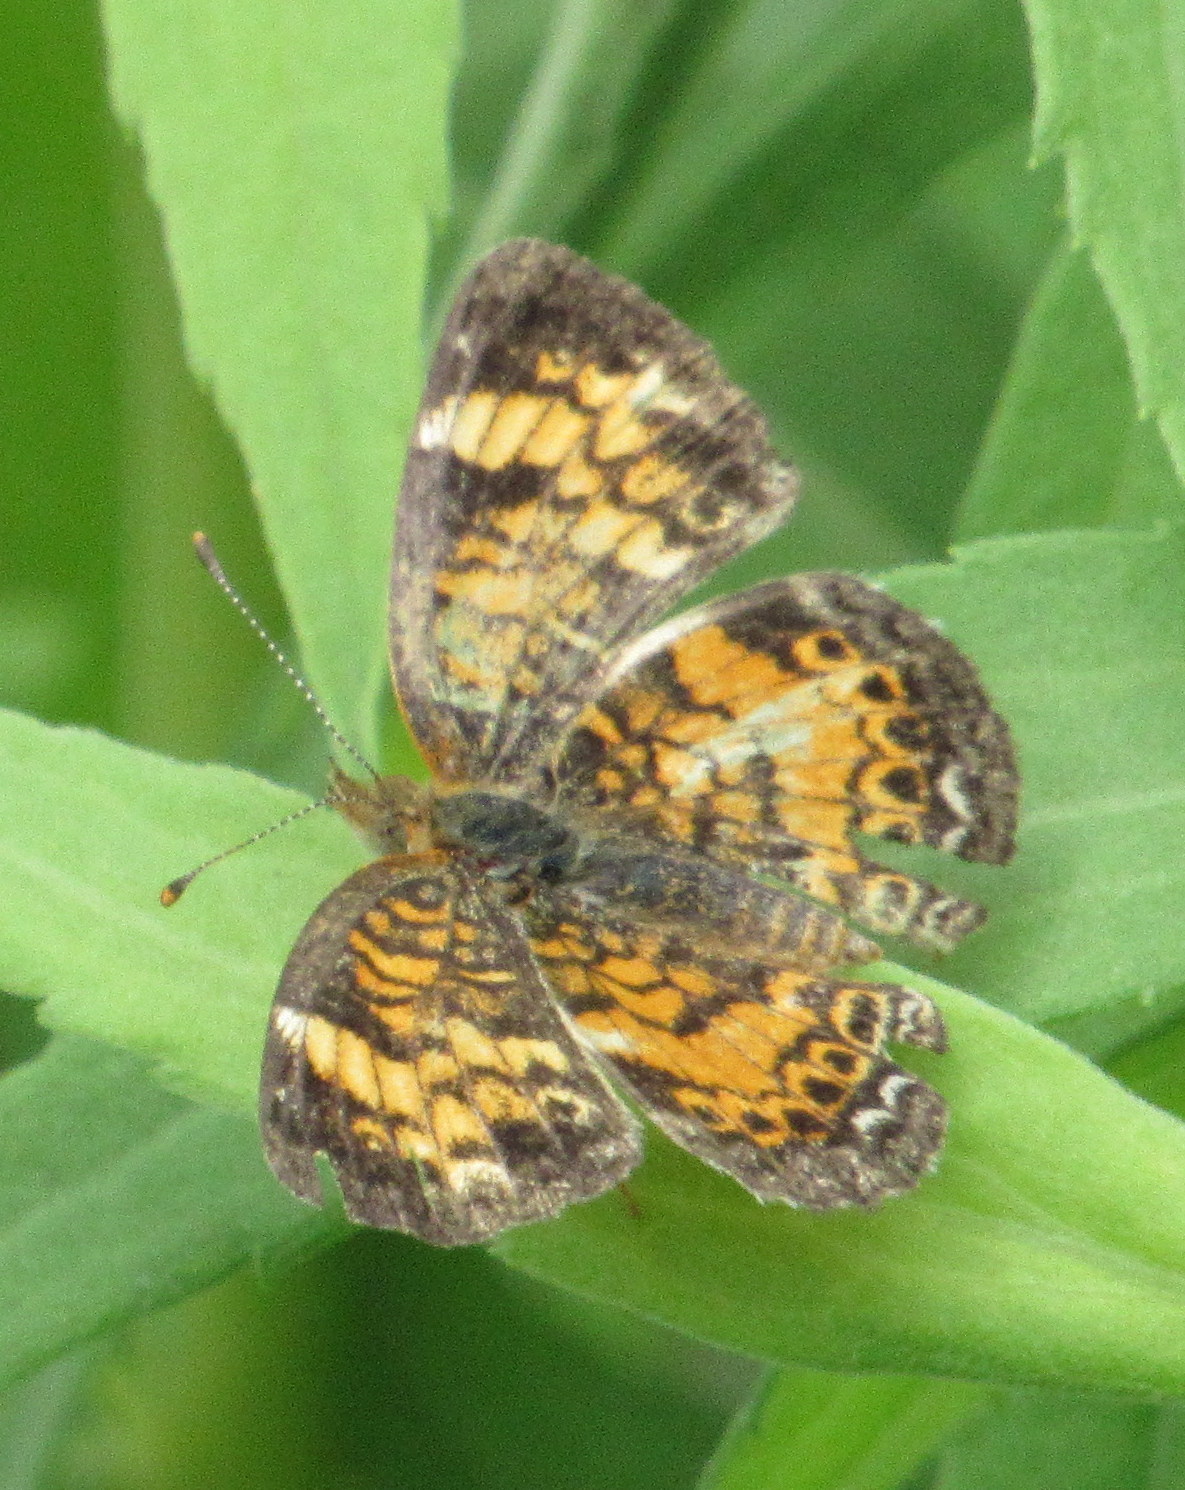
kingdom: Animalia
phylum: Arthropoda
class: Insecta
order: Lepidoptera
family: Nymphalidae
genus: Phyciodes
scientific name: Phyciodes tharos
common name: Pearl crescent
